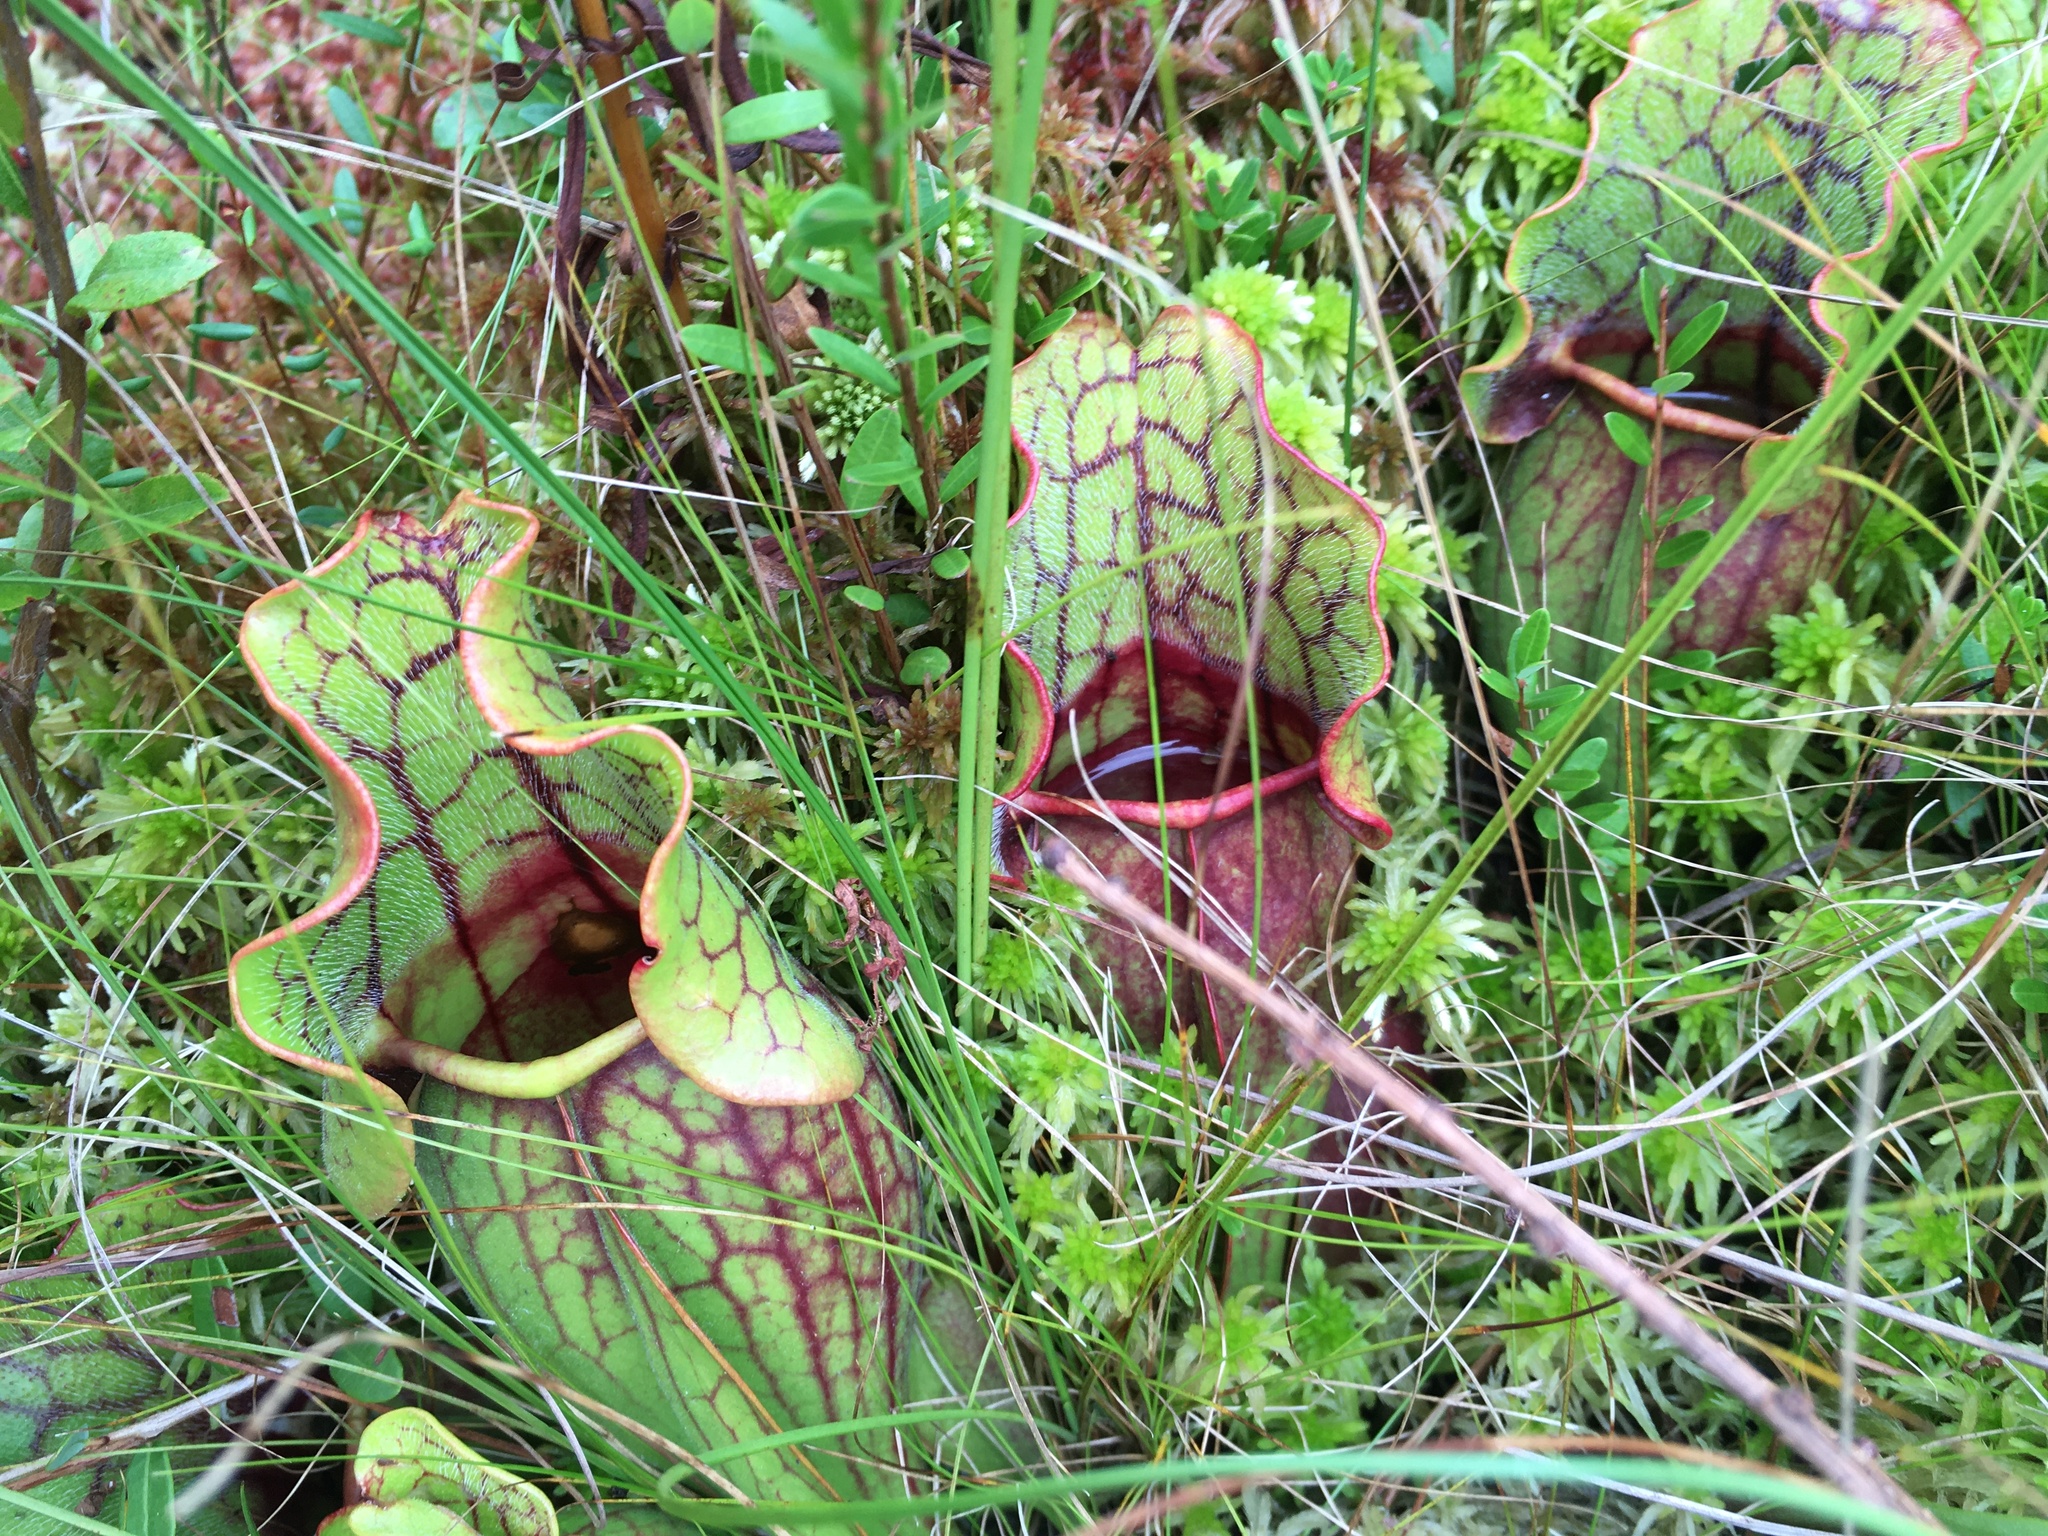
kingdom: Plantae
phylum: Tracheophyta
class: Magnoliopsida
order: Ericales
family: Sarraceniaceae
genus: Sarracenia
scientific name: Sarracenia purpurea
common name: Pitcherplant
